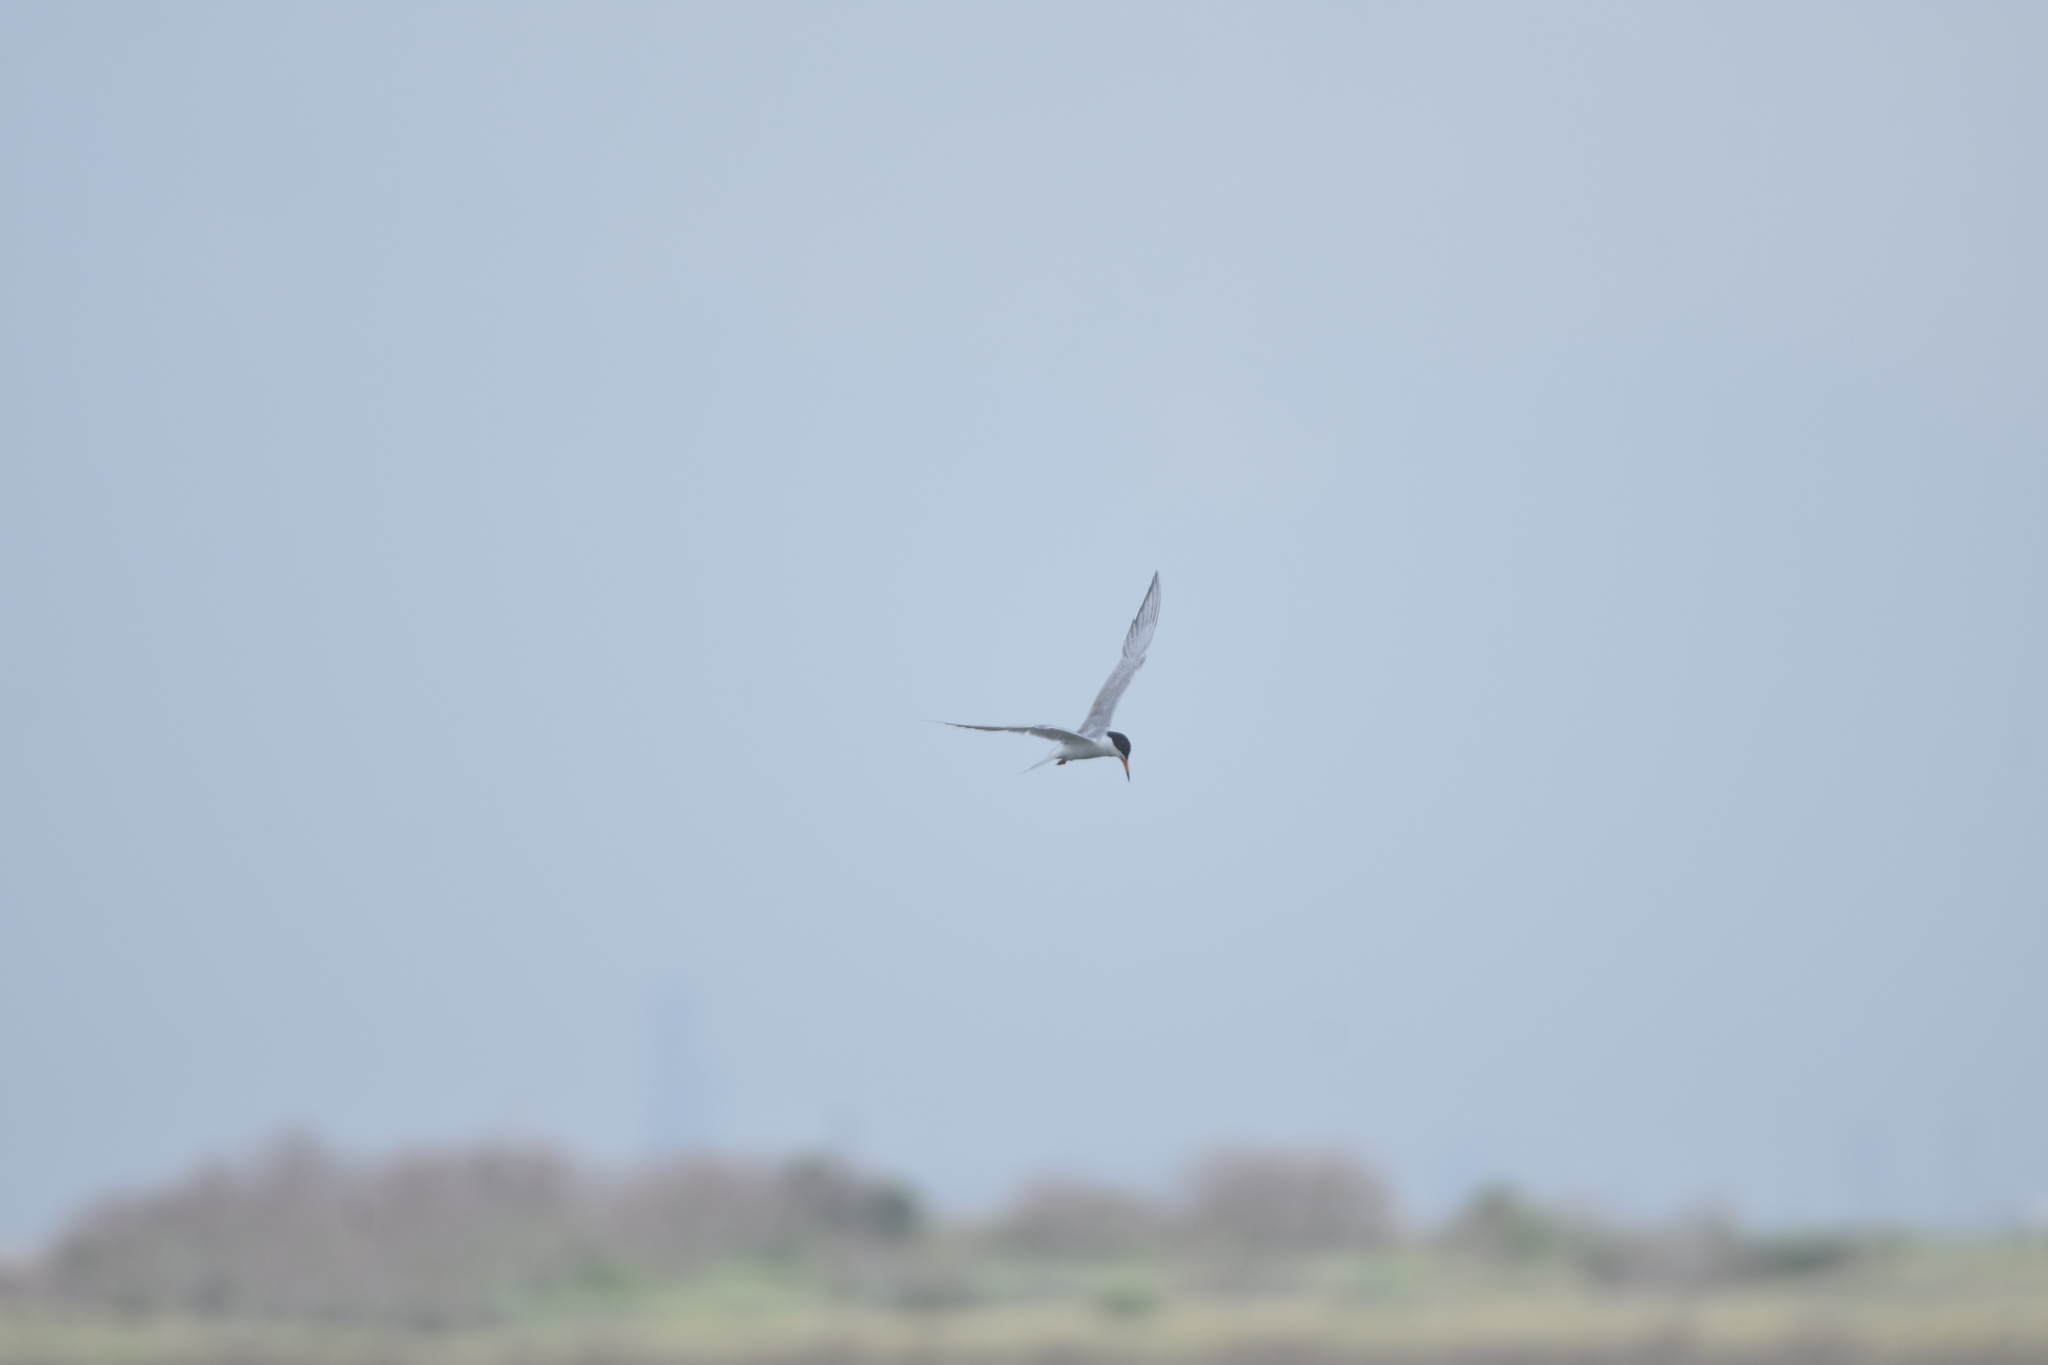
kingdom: Animalia
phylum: Chordata
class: Aves
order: Charadriiformes
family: Laridae
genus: Sterna
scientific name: Sterna forsteri
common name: Forster's tern
